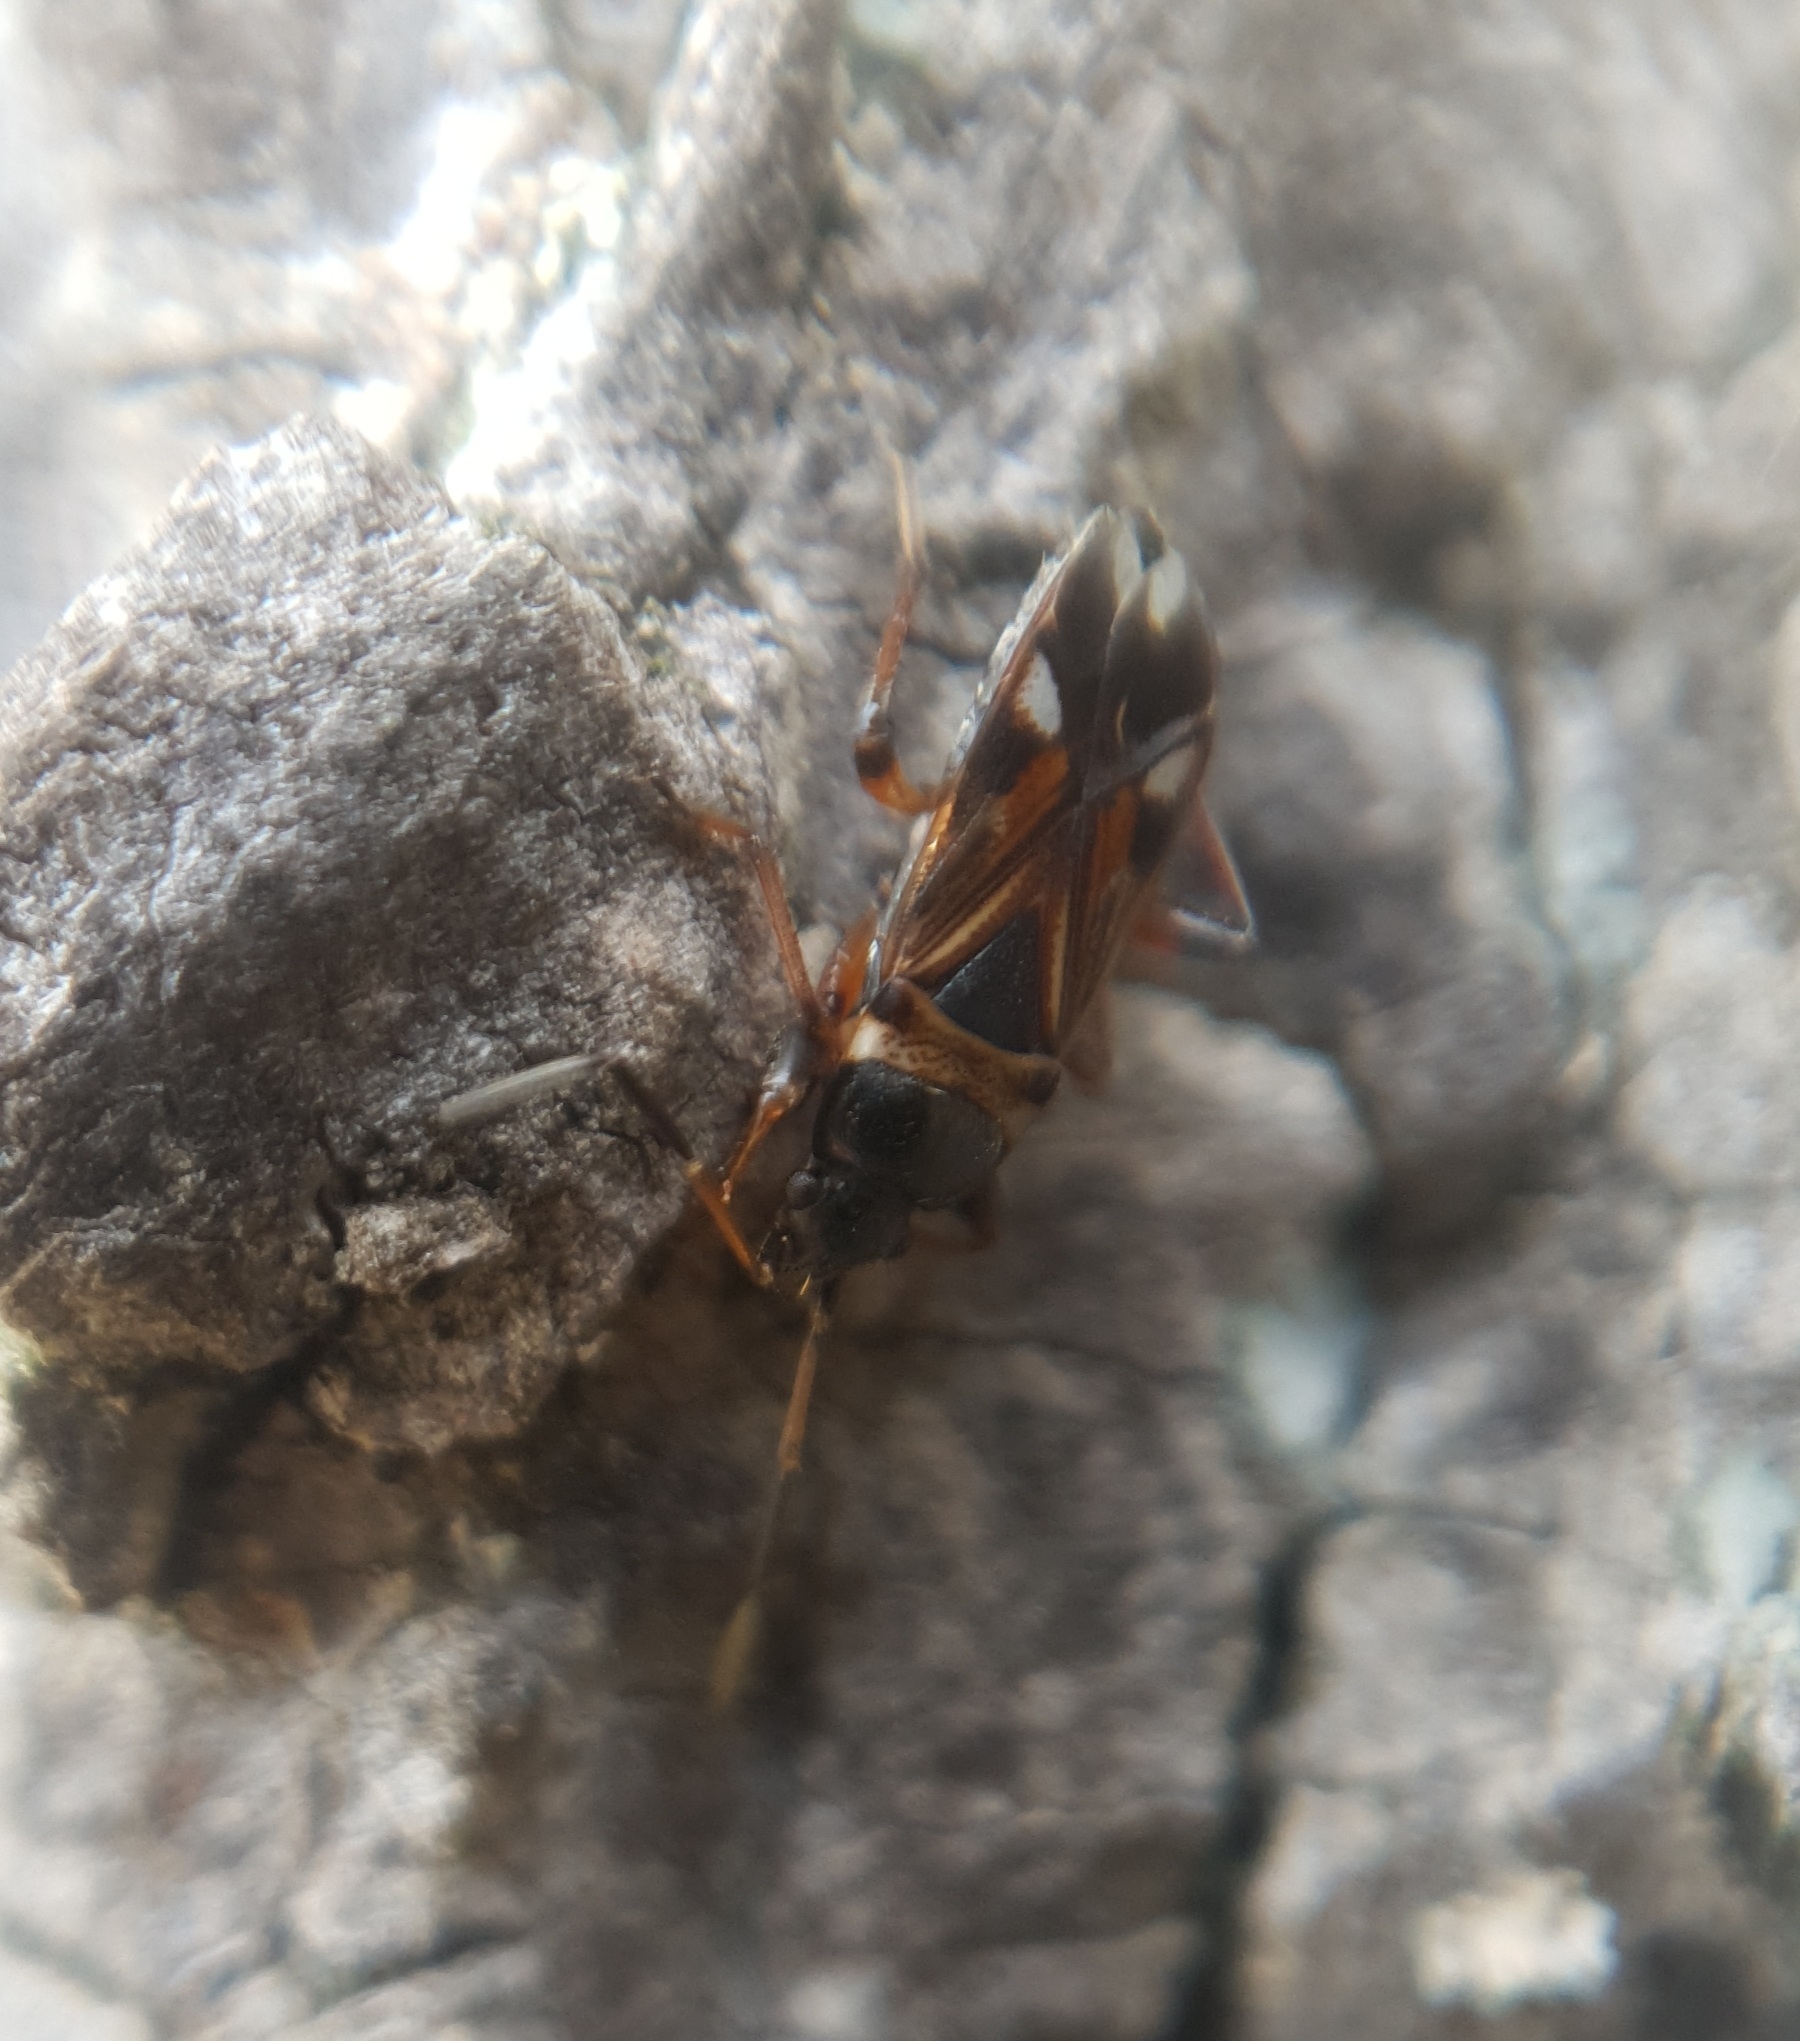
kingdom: Animalia
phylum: Arthropoda
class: Insecta
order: Hemiptera
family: Rhyparochromidae
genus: Raglius
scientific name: Raglius alboacuminatus
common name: Dirt-colored seed bug
